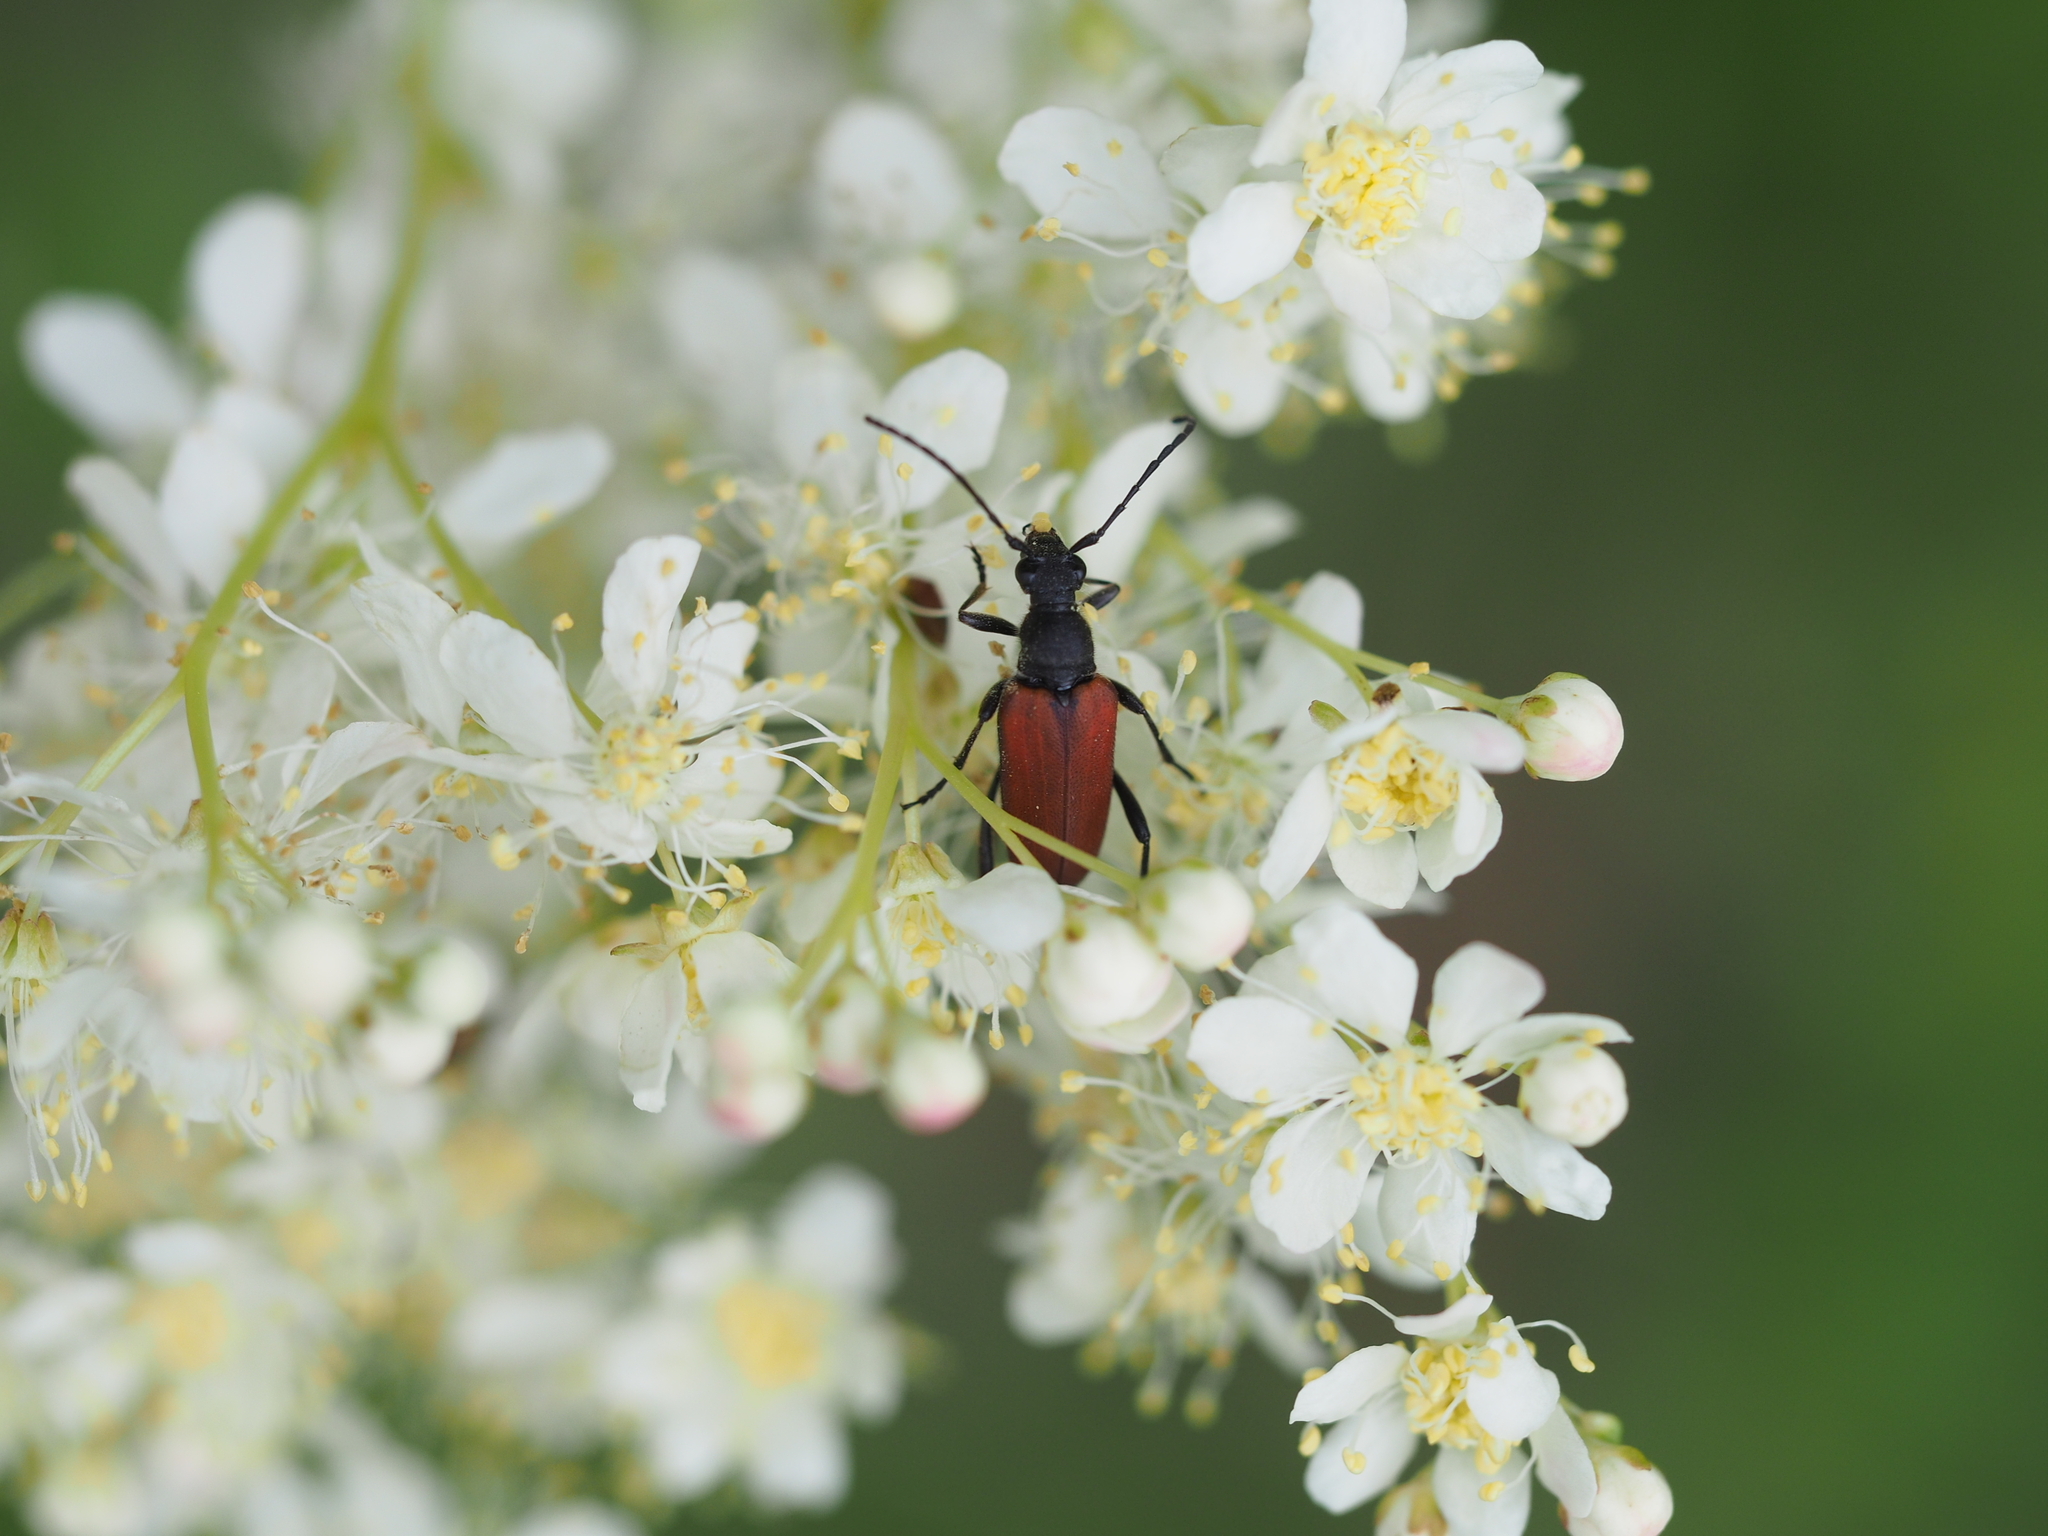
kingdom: Animalia
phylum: Arthropoda
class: Insecta
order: Coleoptera
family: Cerambycidae
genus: Anastrangalia
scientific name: Anastrangalia sanguinolenta
